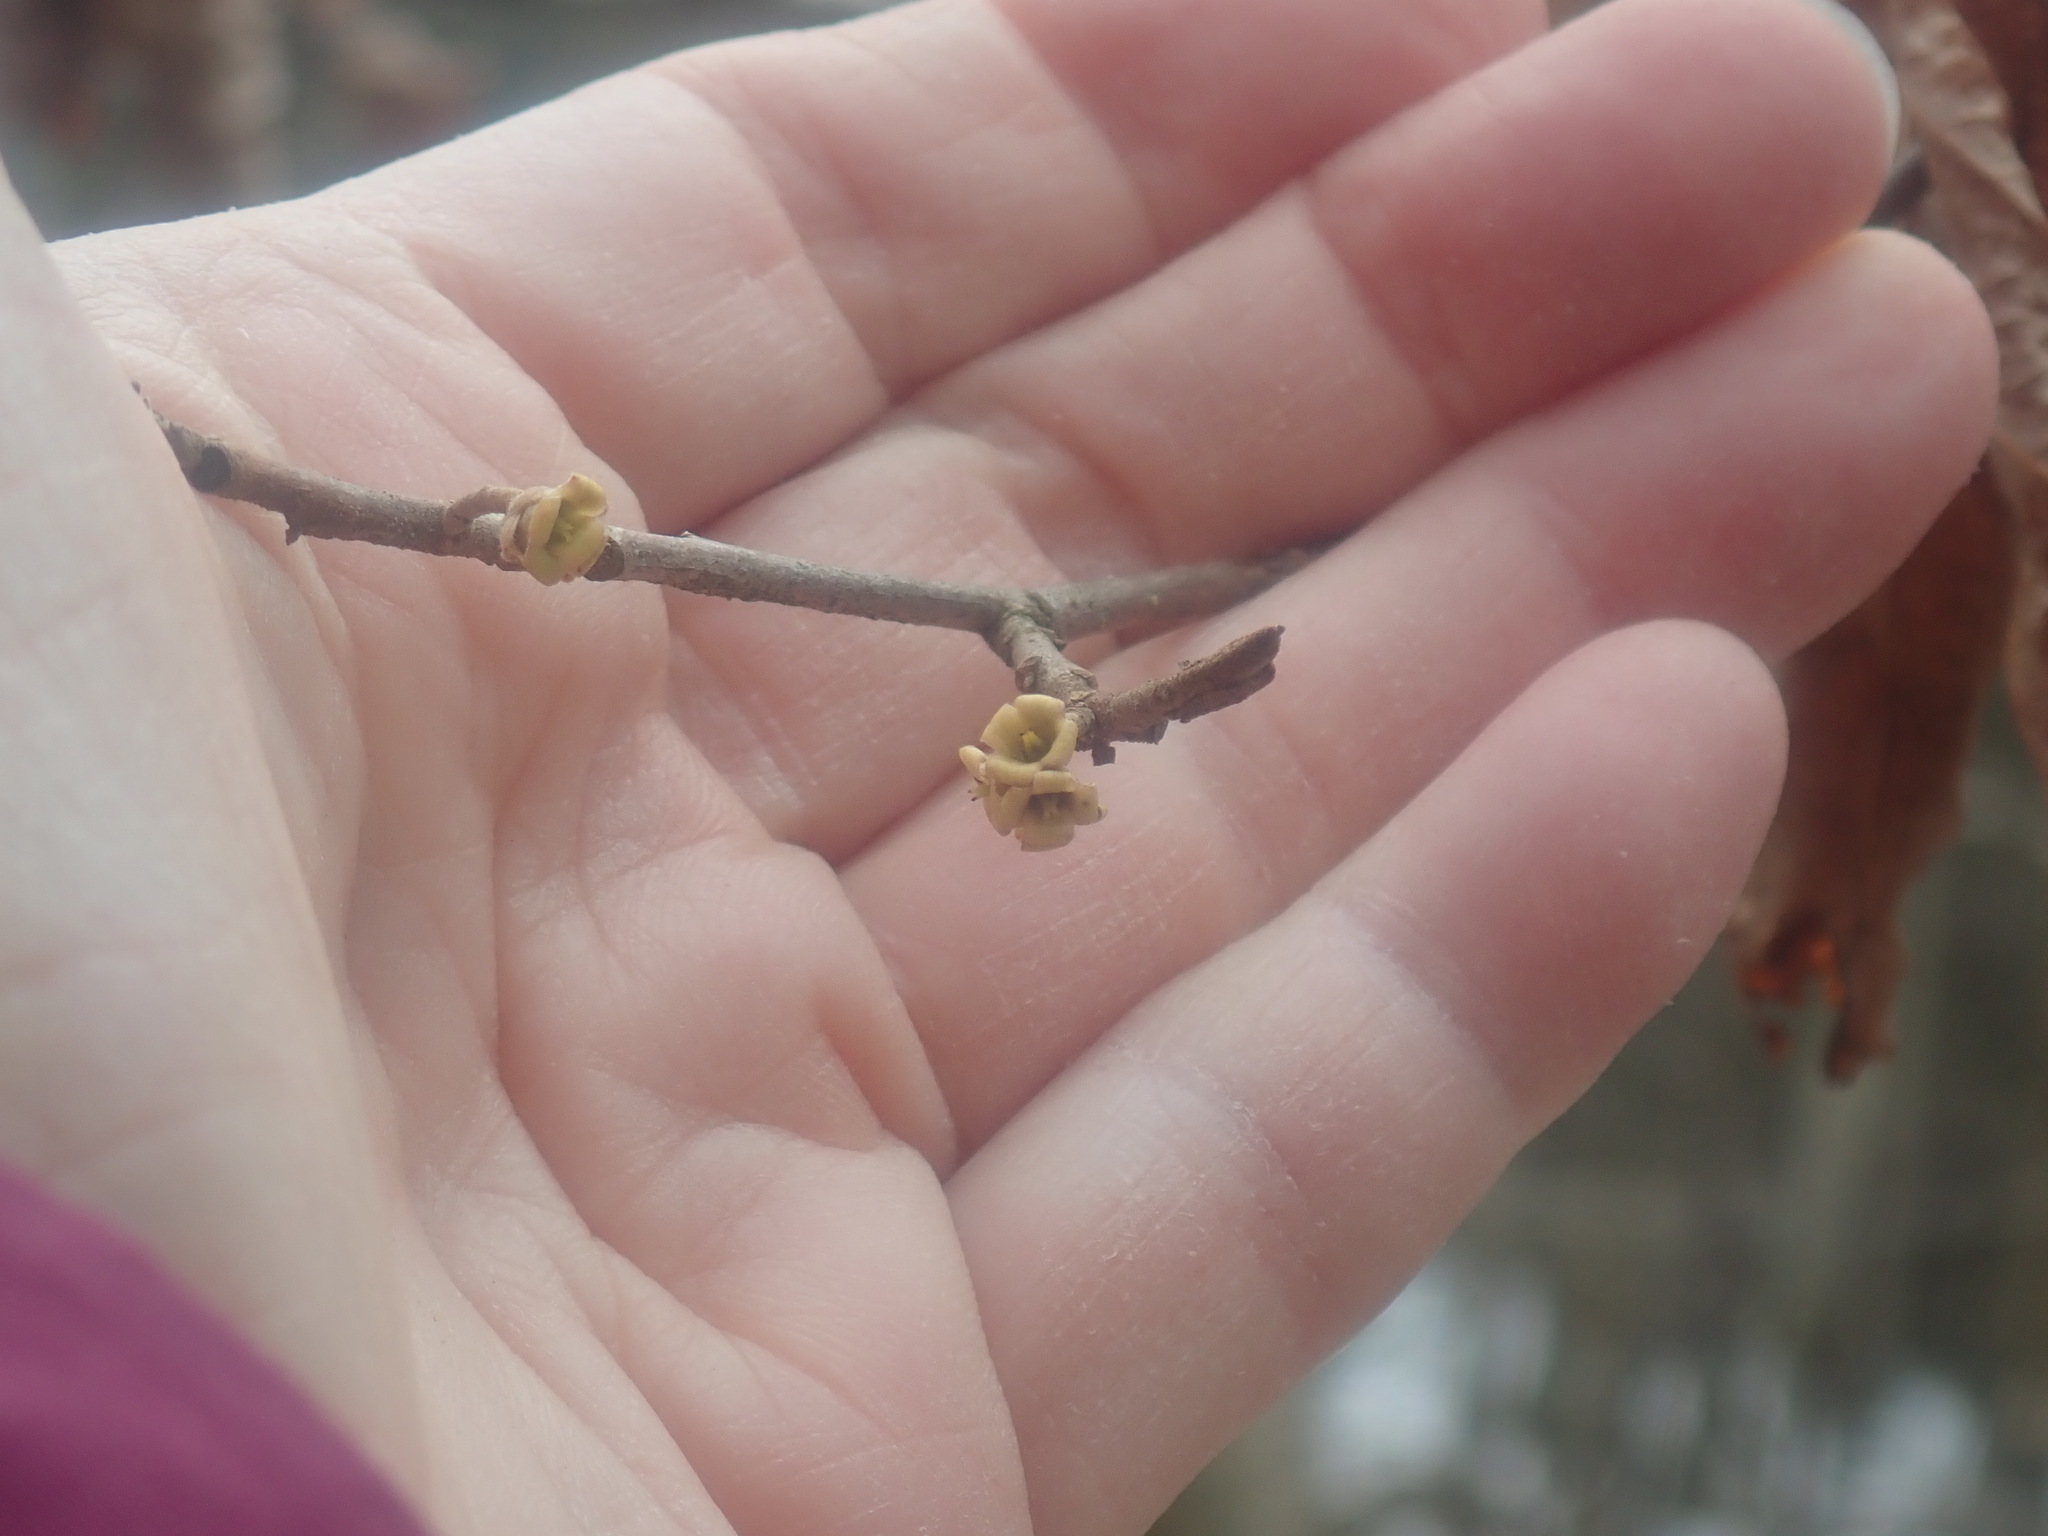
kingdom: Plantae
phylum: Tracheophyta
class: Magnoliopsida
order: Saxifragales
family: Hamamelidaceae
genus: Hamamelis
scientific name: Hamamelis virginiana
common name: Witch-hazel
